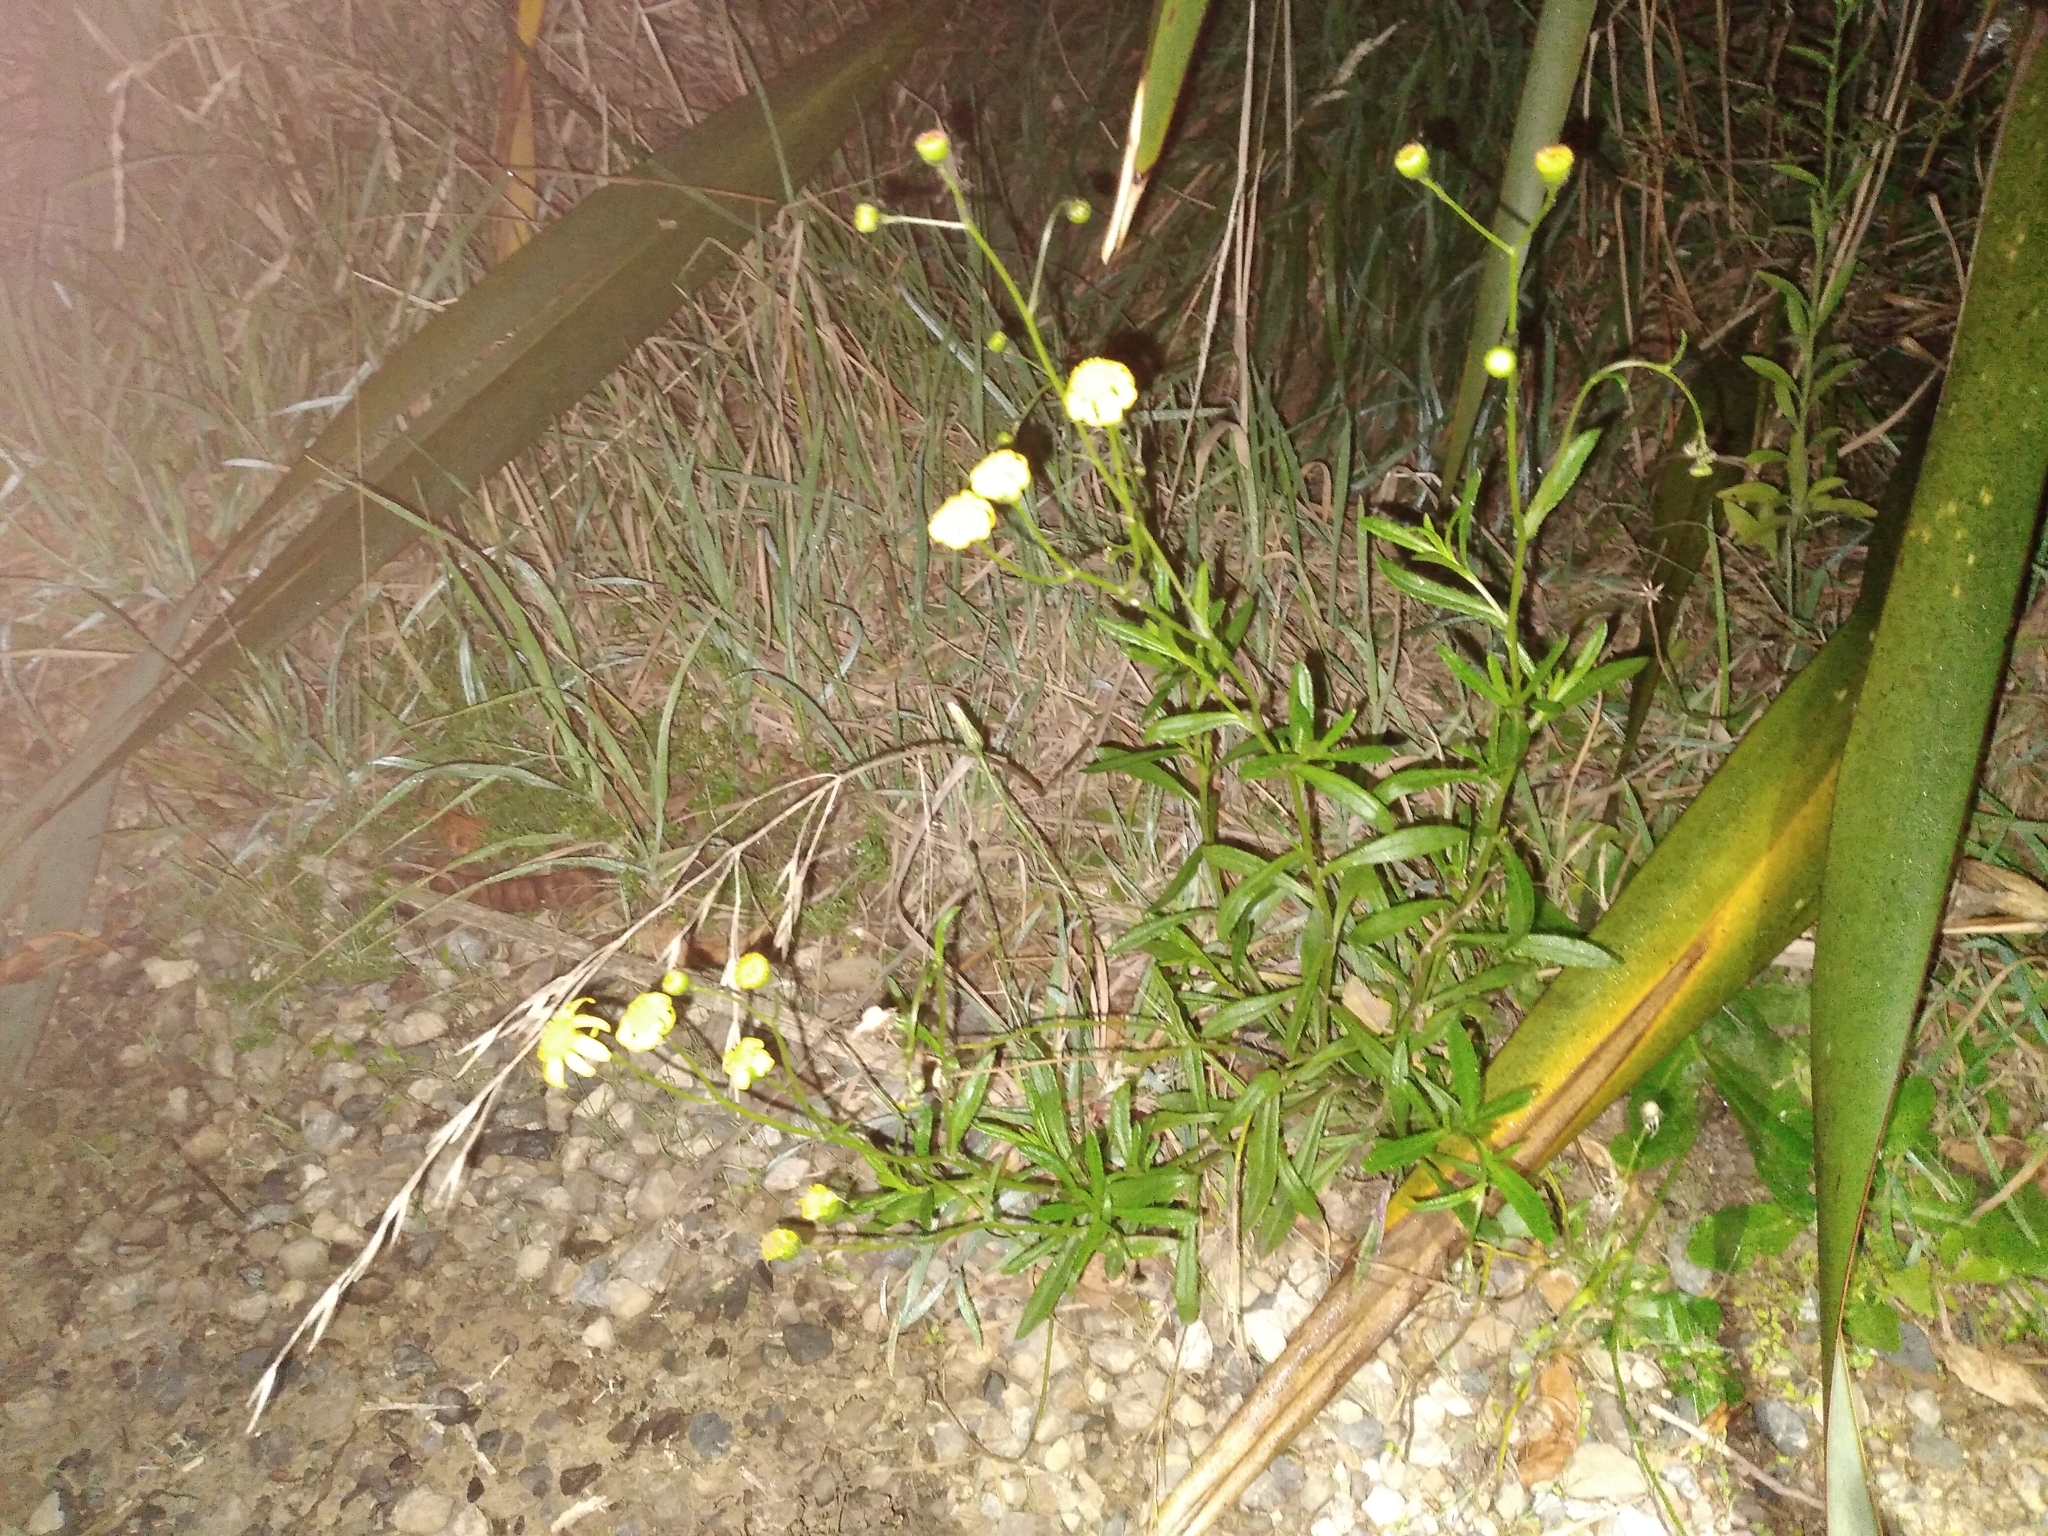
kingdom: Plantae
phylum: Tracheophyta
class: Magnoliopsida
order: Asterales
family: Asteraceae
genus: Senecio
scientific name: Senecio skirrhodon
